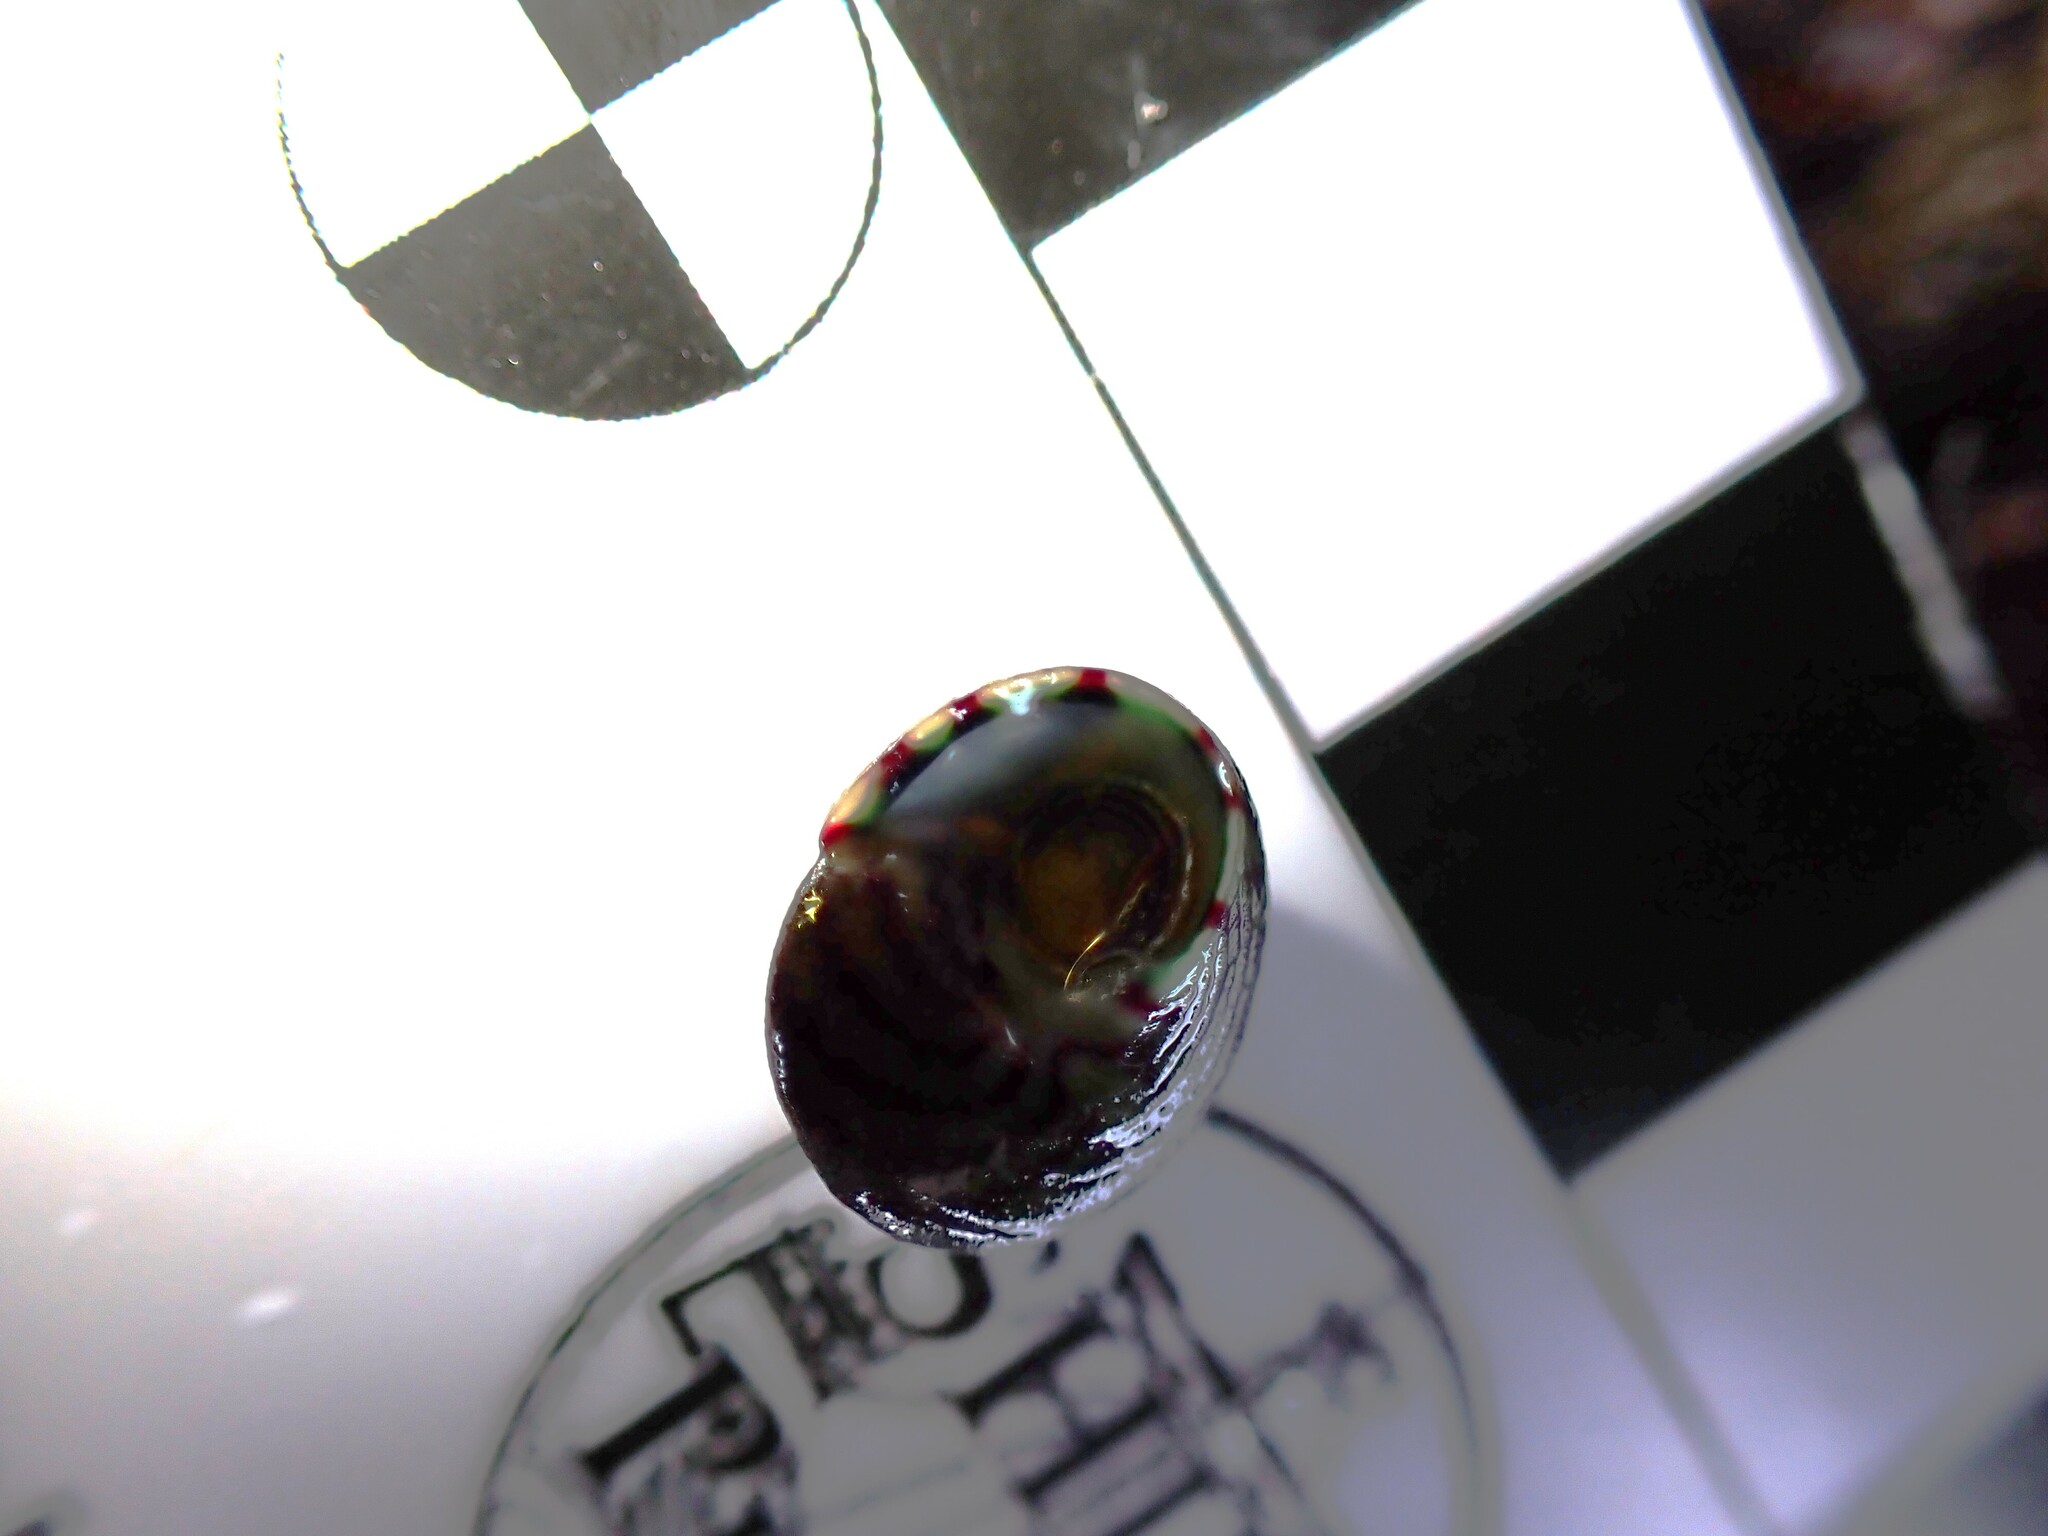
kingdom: Animalia
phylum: Mollusca
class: Gastropoda
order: Trochida
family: Trochidae
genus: Steromphala
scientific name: Steromphala umbilicalis
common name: Flat top shell
